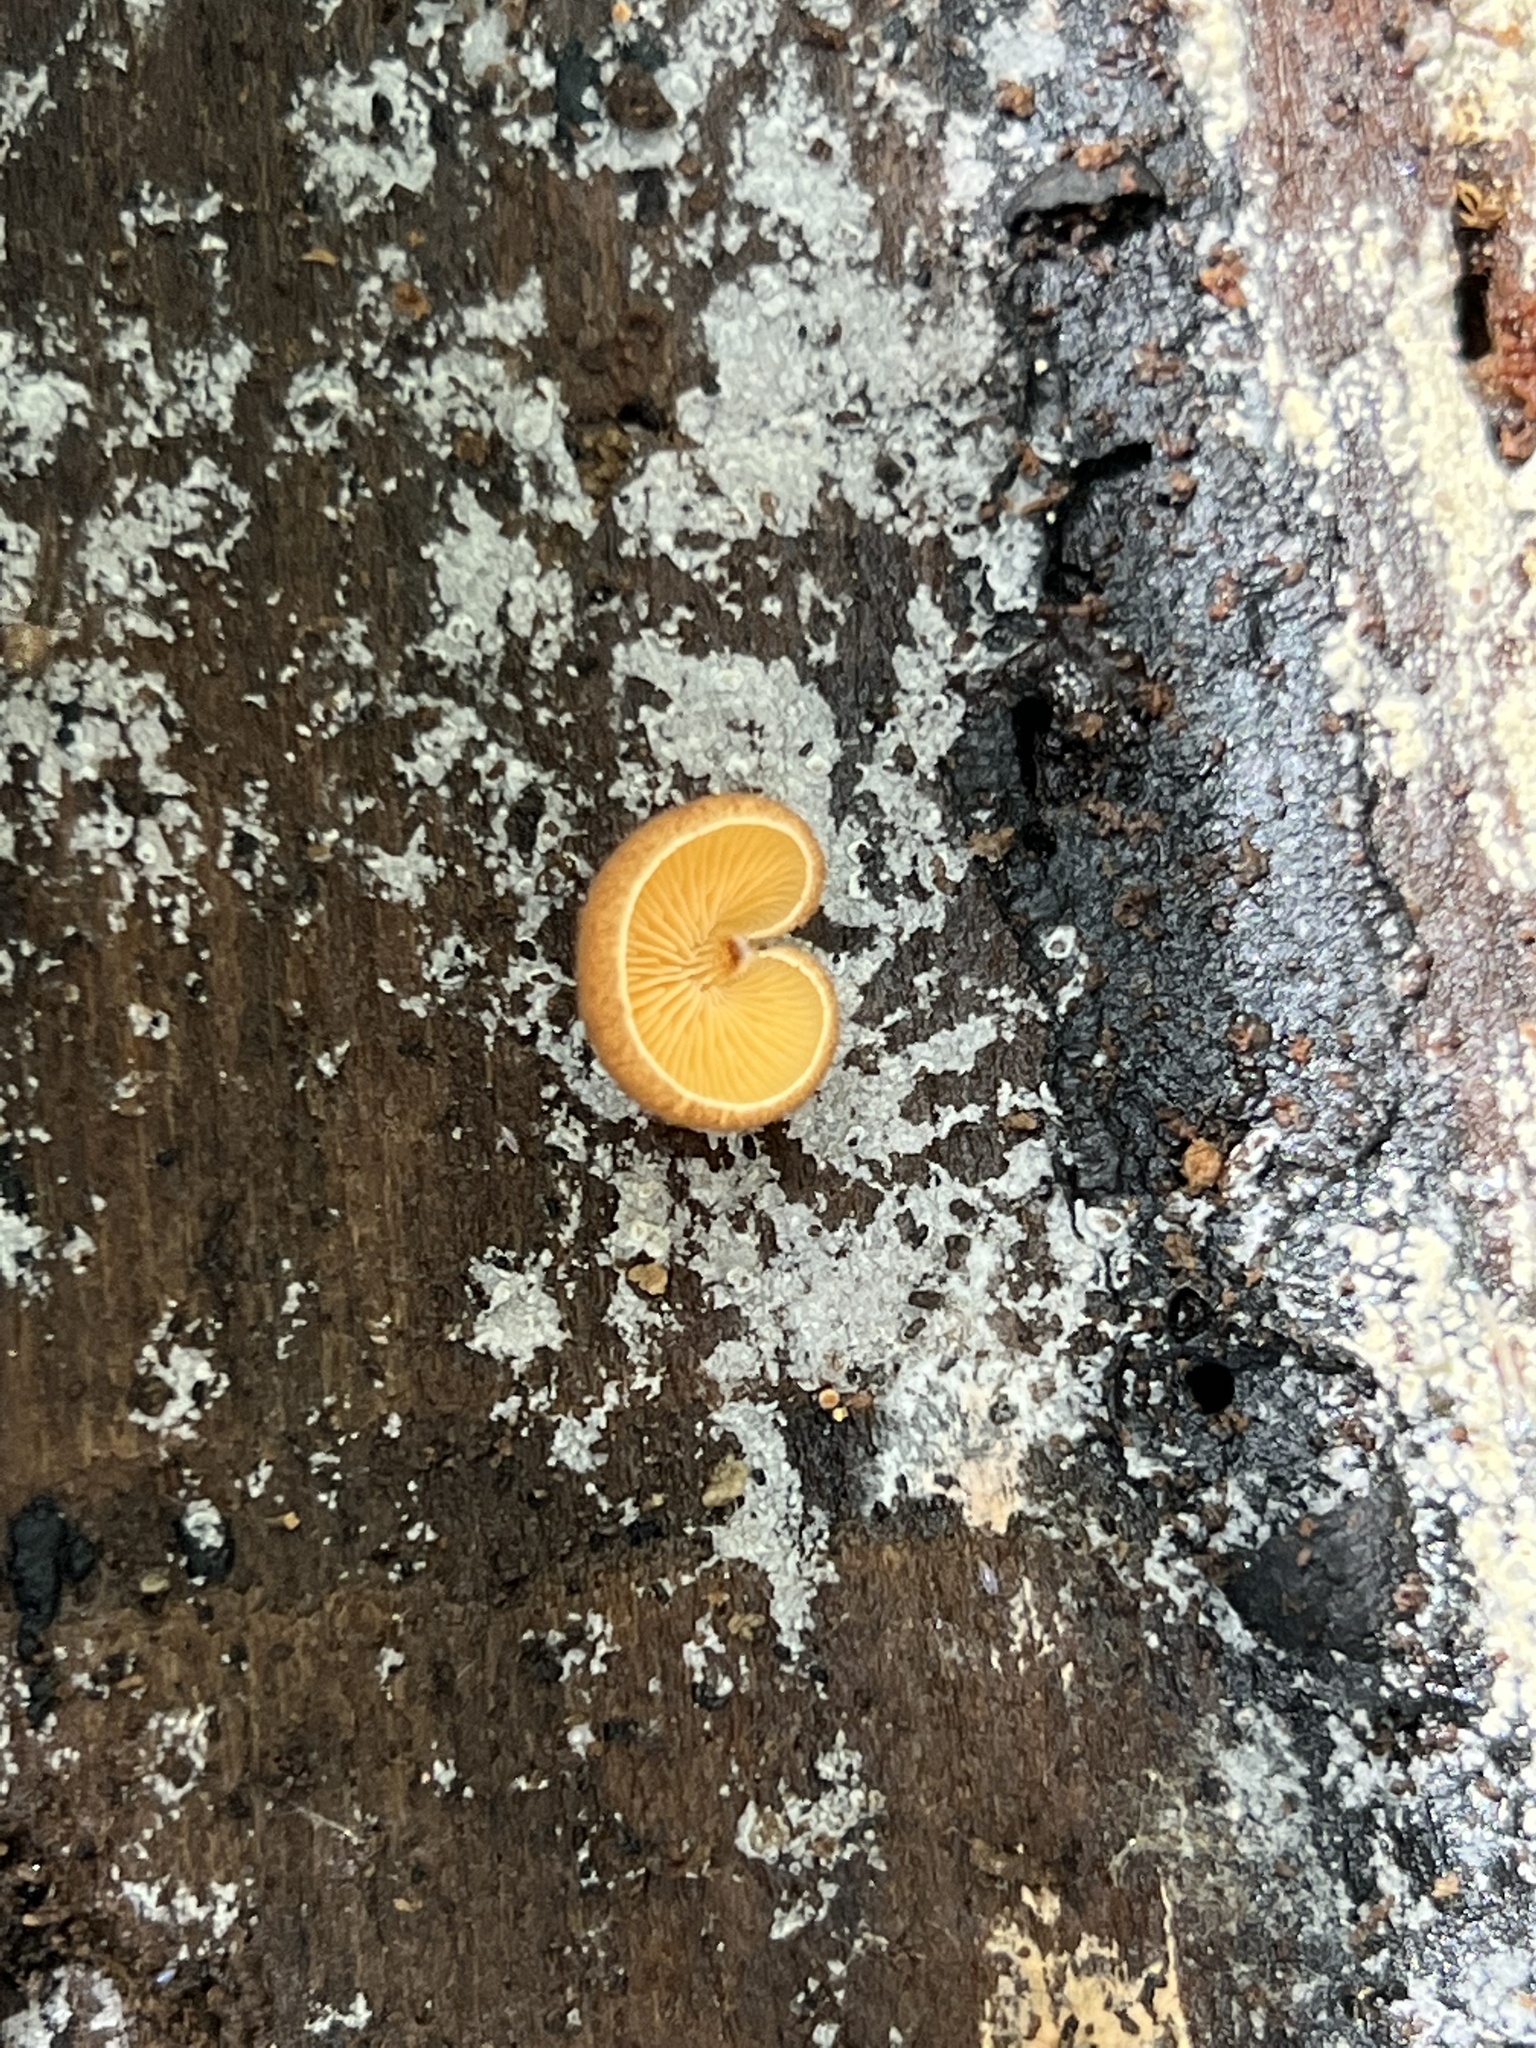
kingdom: Fungi
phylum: Basidiomycota
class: Agaricomycetes
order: Agaricales
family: Crepidotaceae
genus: Crepidotus
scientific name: Crepidotus crocophyllus
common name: Saffron oysterling
